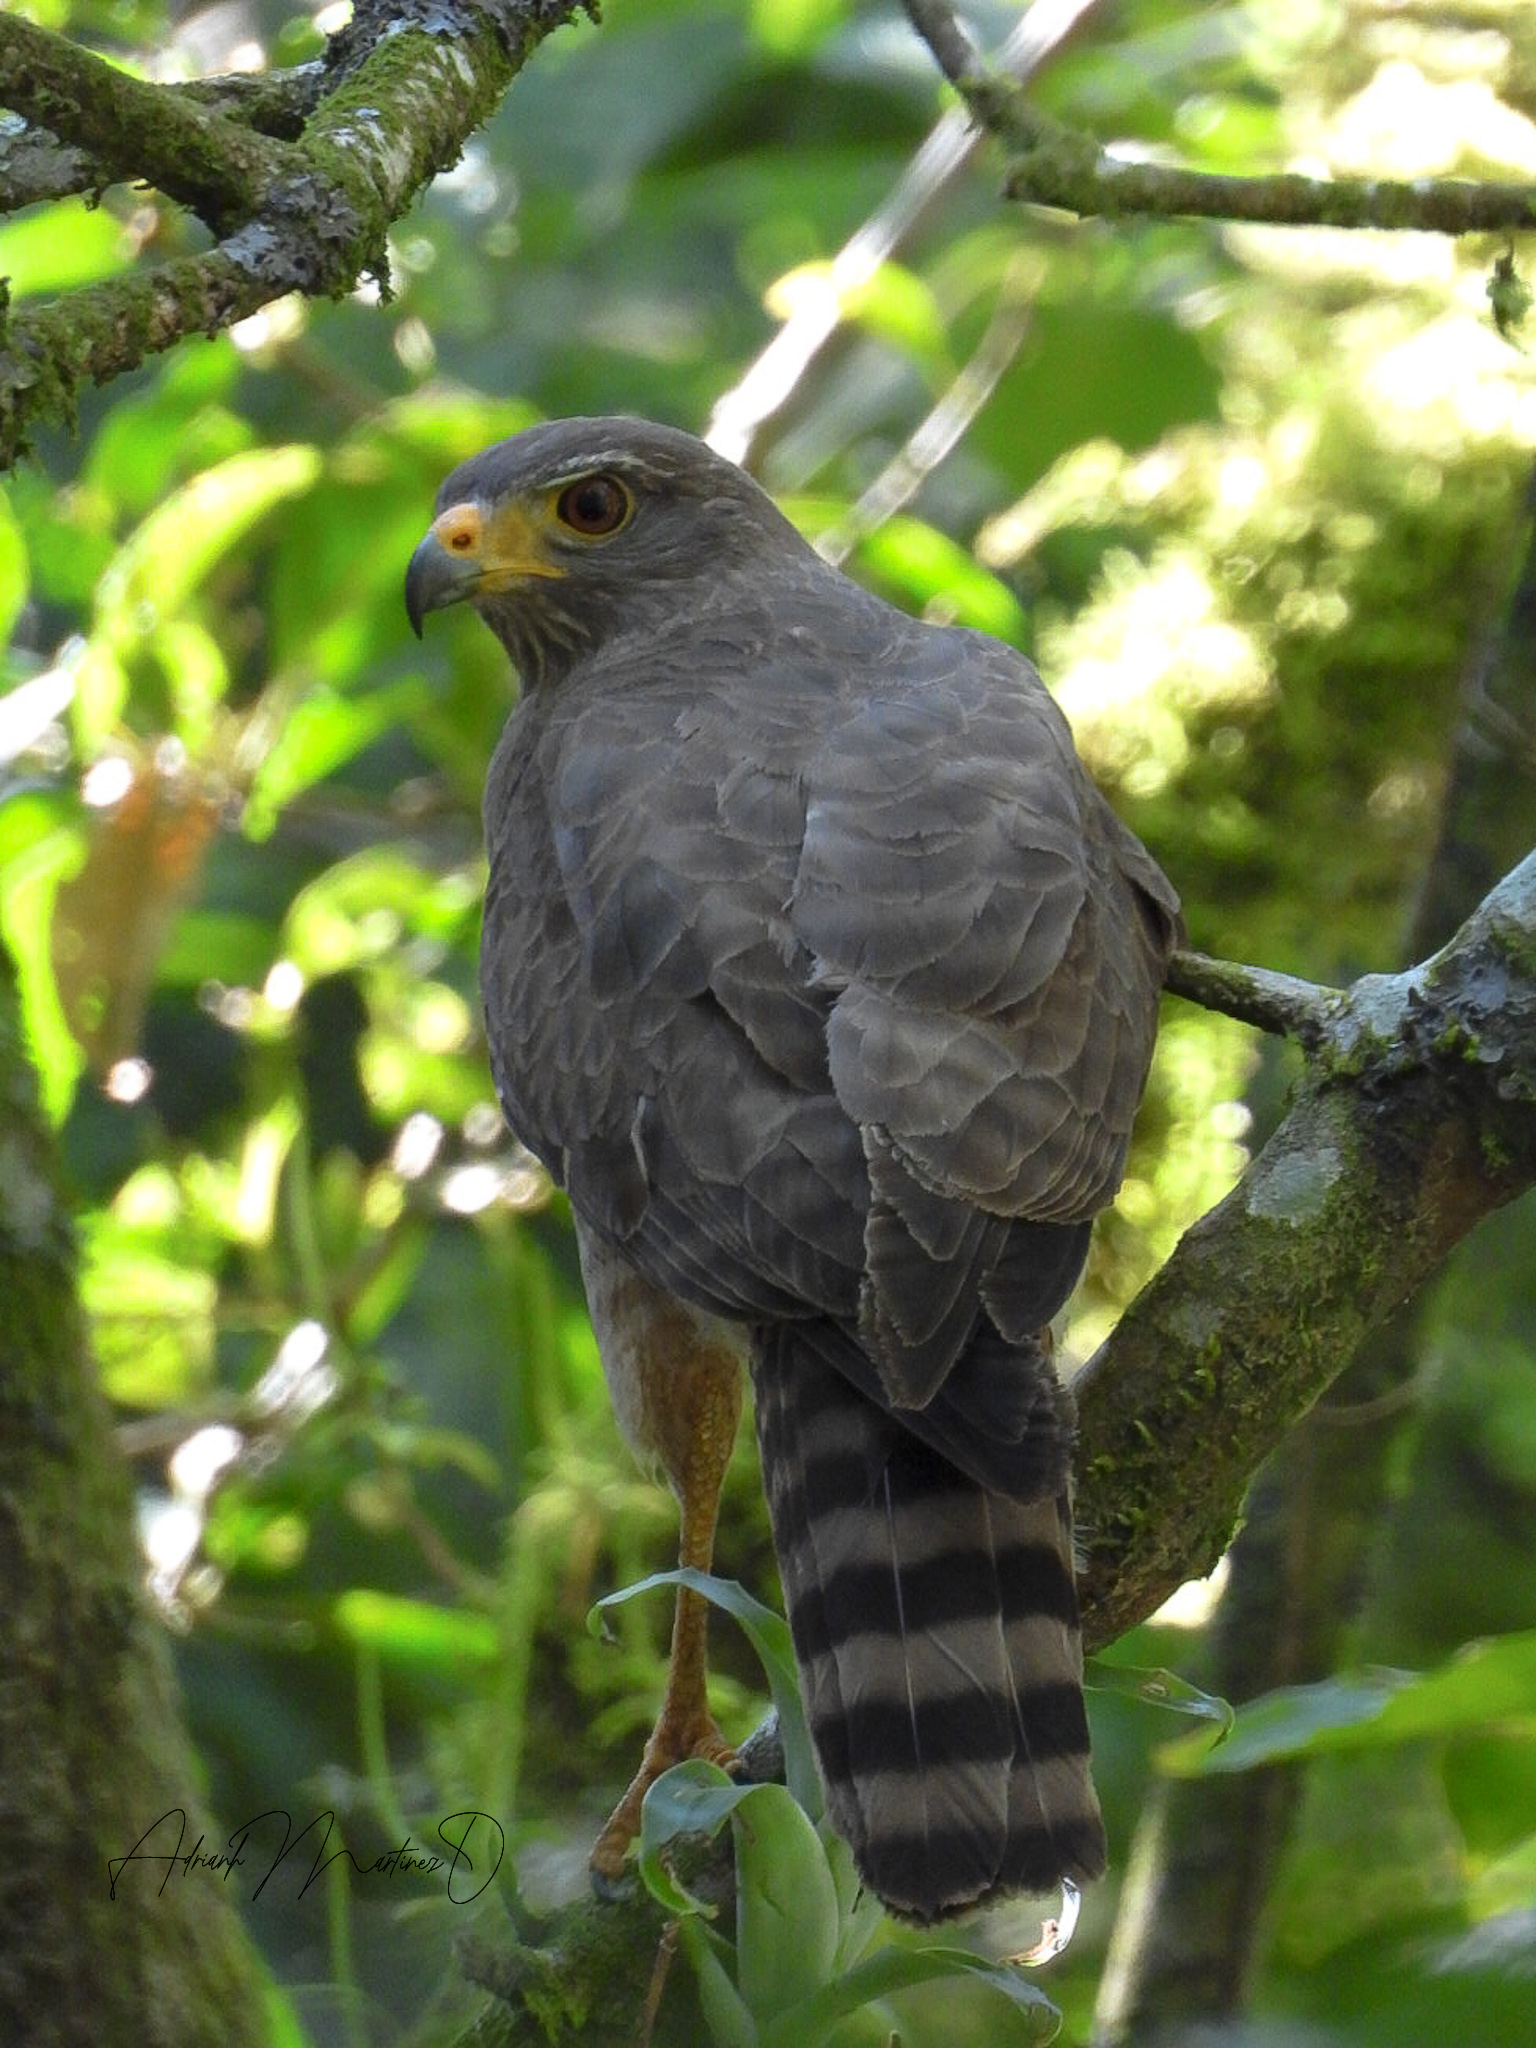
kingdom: Animalia
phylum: Chordata
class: Aves
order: Accipitriformes
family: Accipitridae
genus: Rupornis
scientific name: Rupornis magnirostris
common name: Roadside hawk
